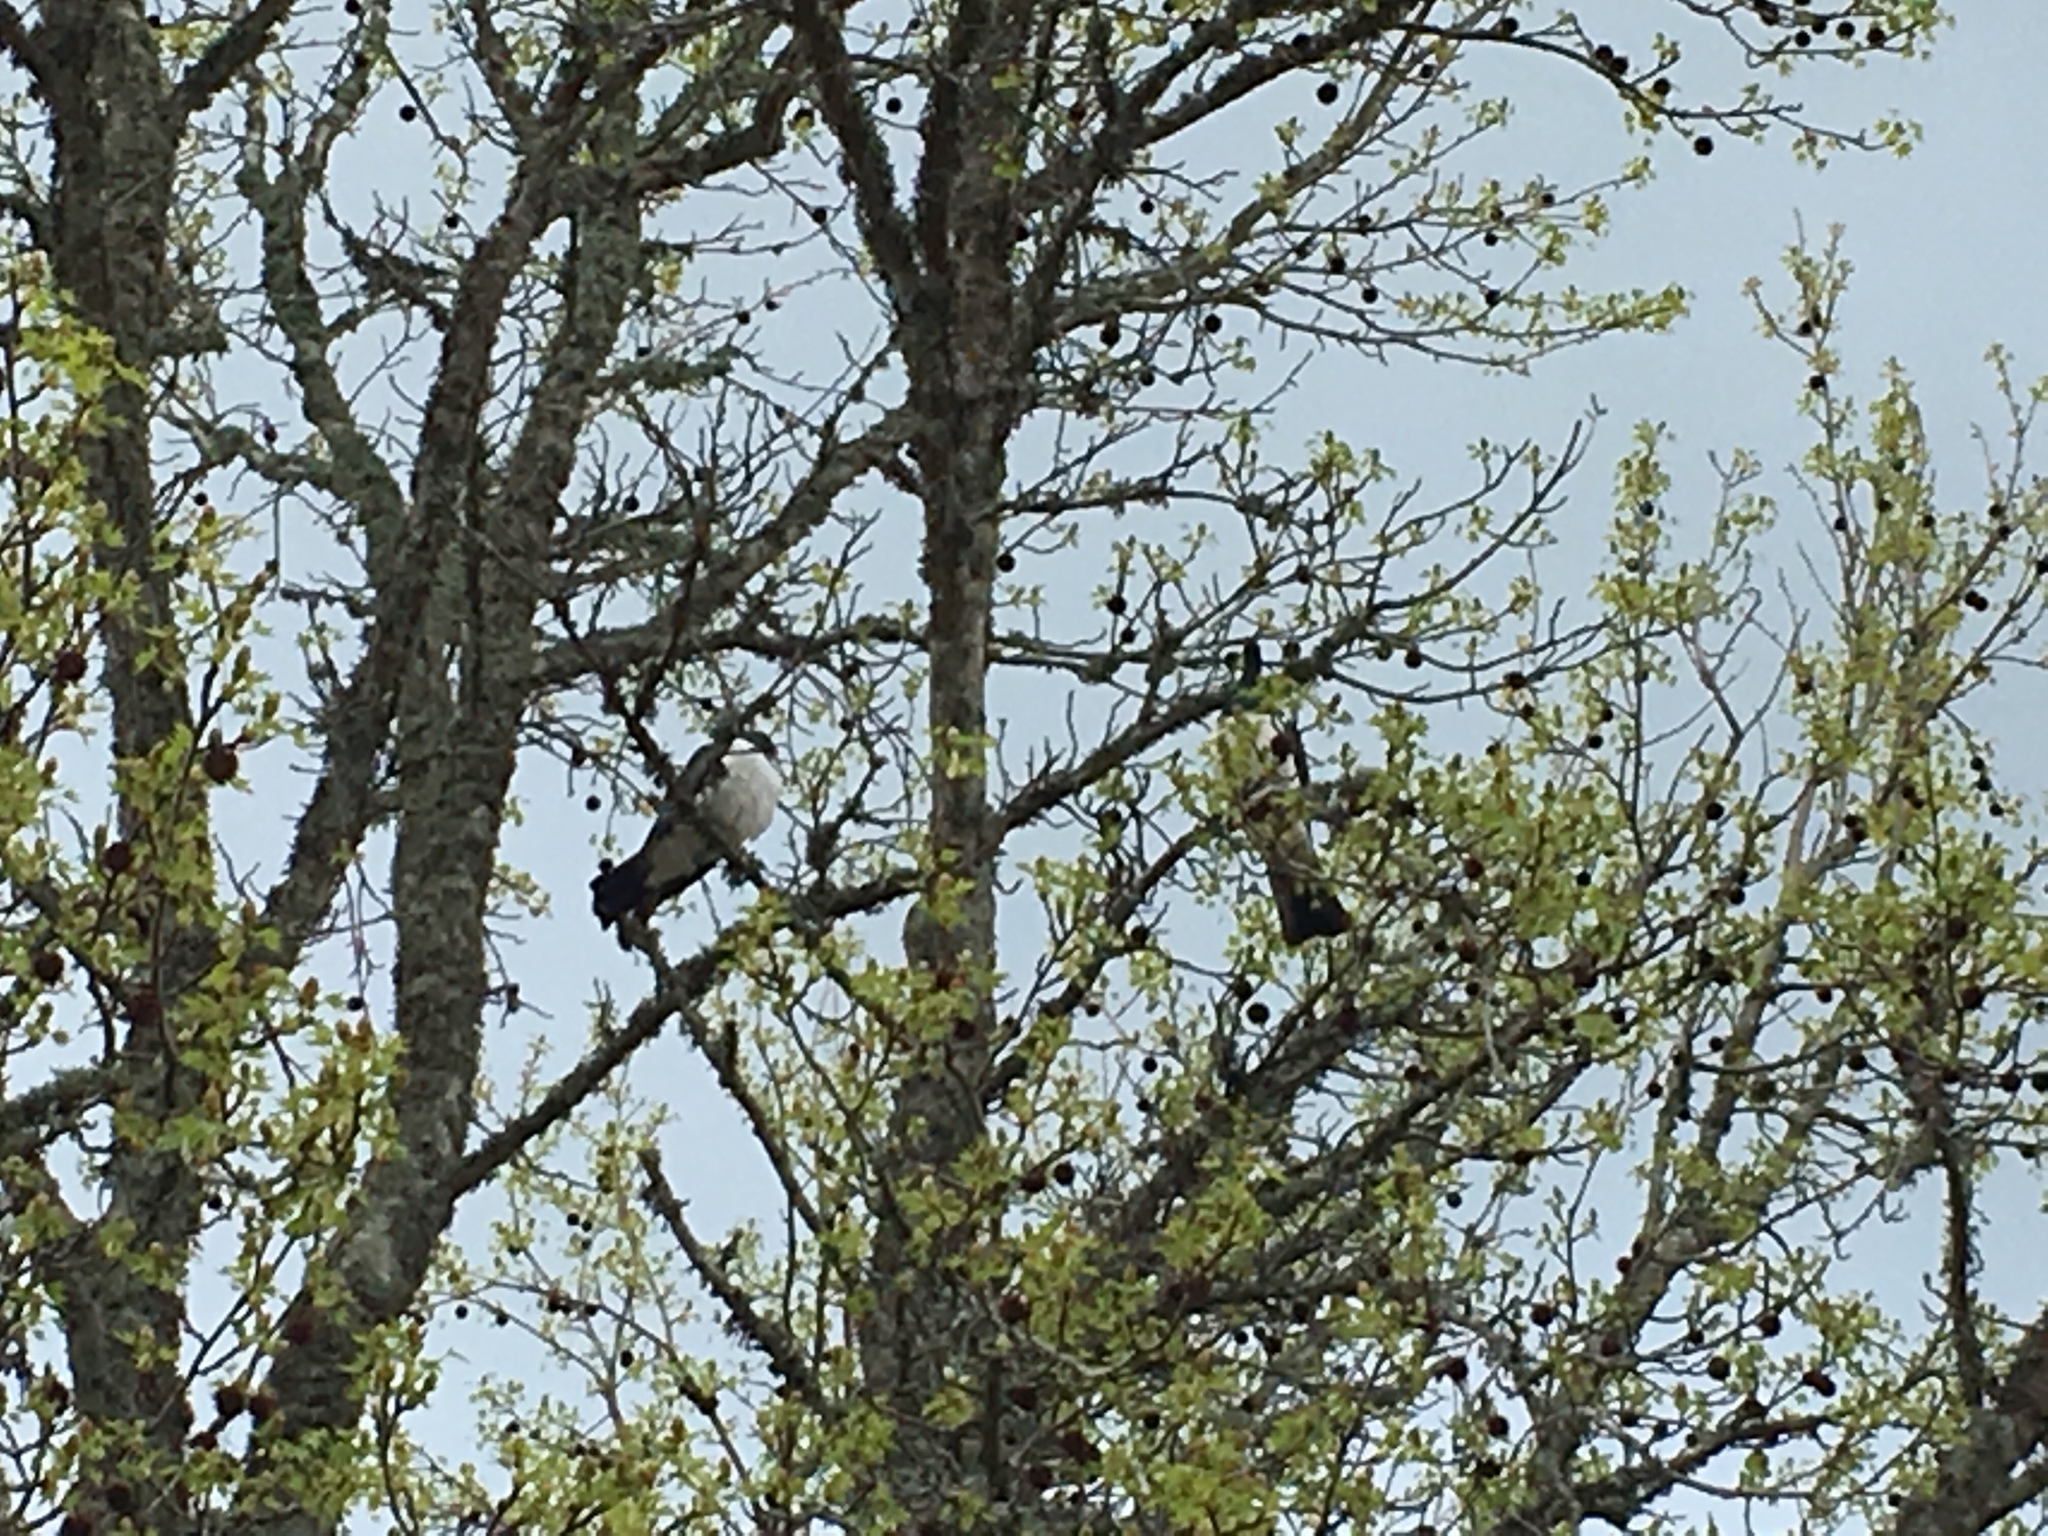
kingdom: Animalia
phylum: Chordata
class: Aves
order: Columbiformes
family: Columbidae
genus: Hemiphaga
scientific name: Hemiphaga novaeseelandiae
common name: New zealand pigeon
